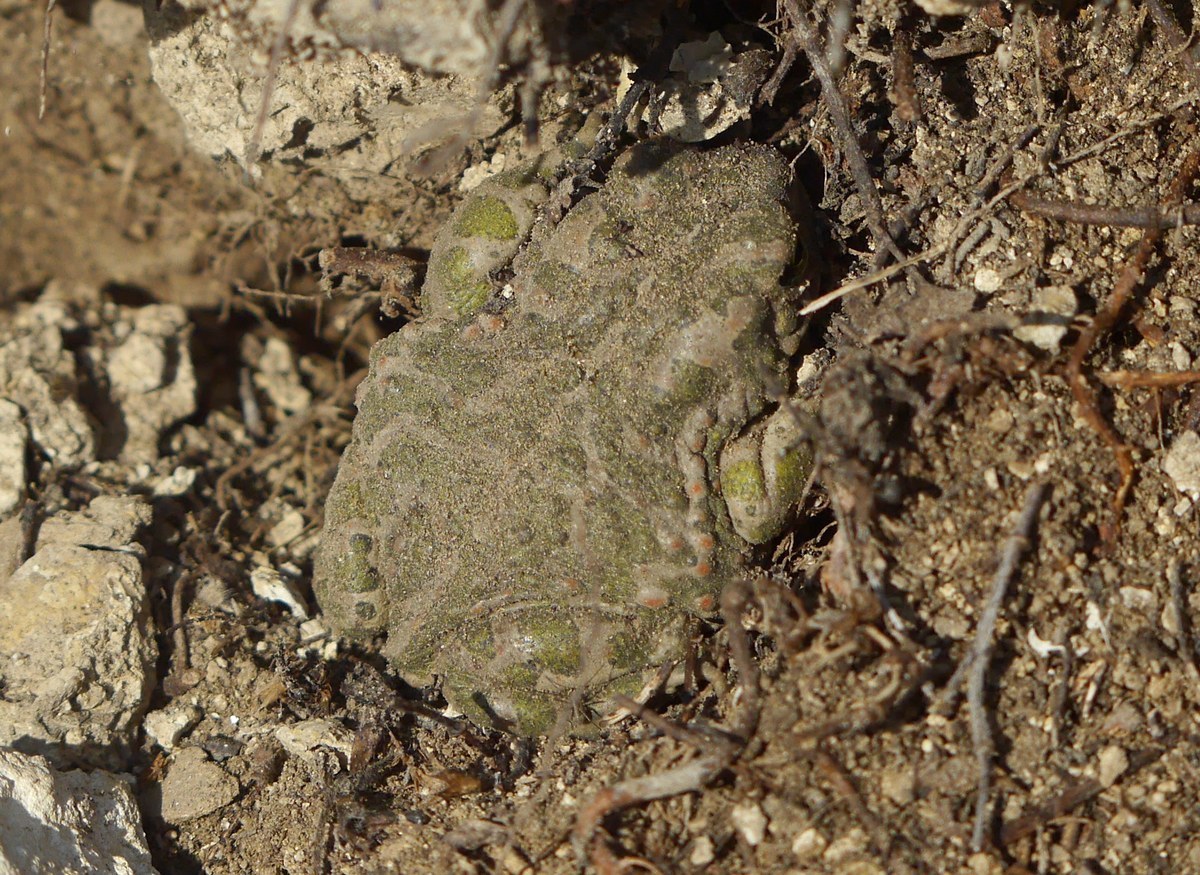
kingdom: Animalia
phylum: Chordata
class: Amphibia
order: Anura
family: Bufonidae
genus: Bufotes
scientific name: Bufotes viridis
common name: European green toad
